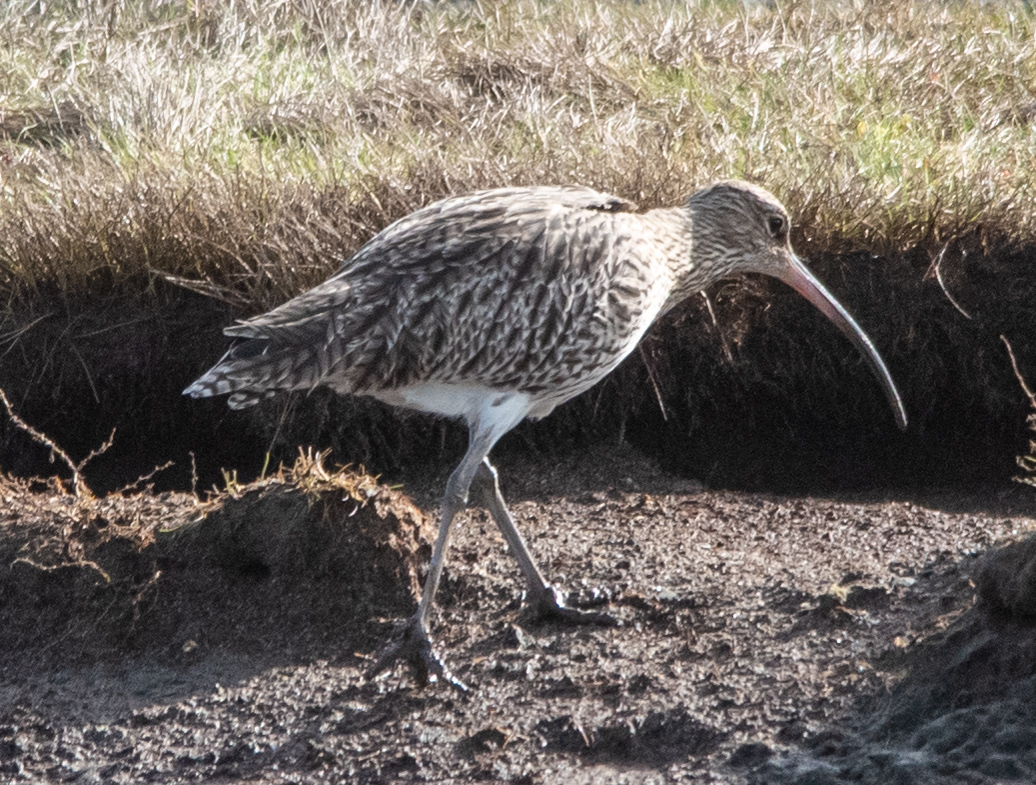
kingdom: Animalia
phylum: Chordata
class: Aves
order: Charadriiformes
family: Scolopacidae
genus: Numenius
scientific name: Numenius arquata
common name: Eurasian curlew
